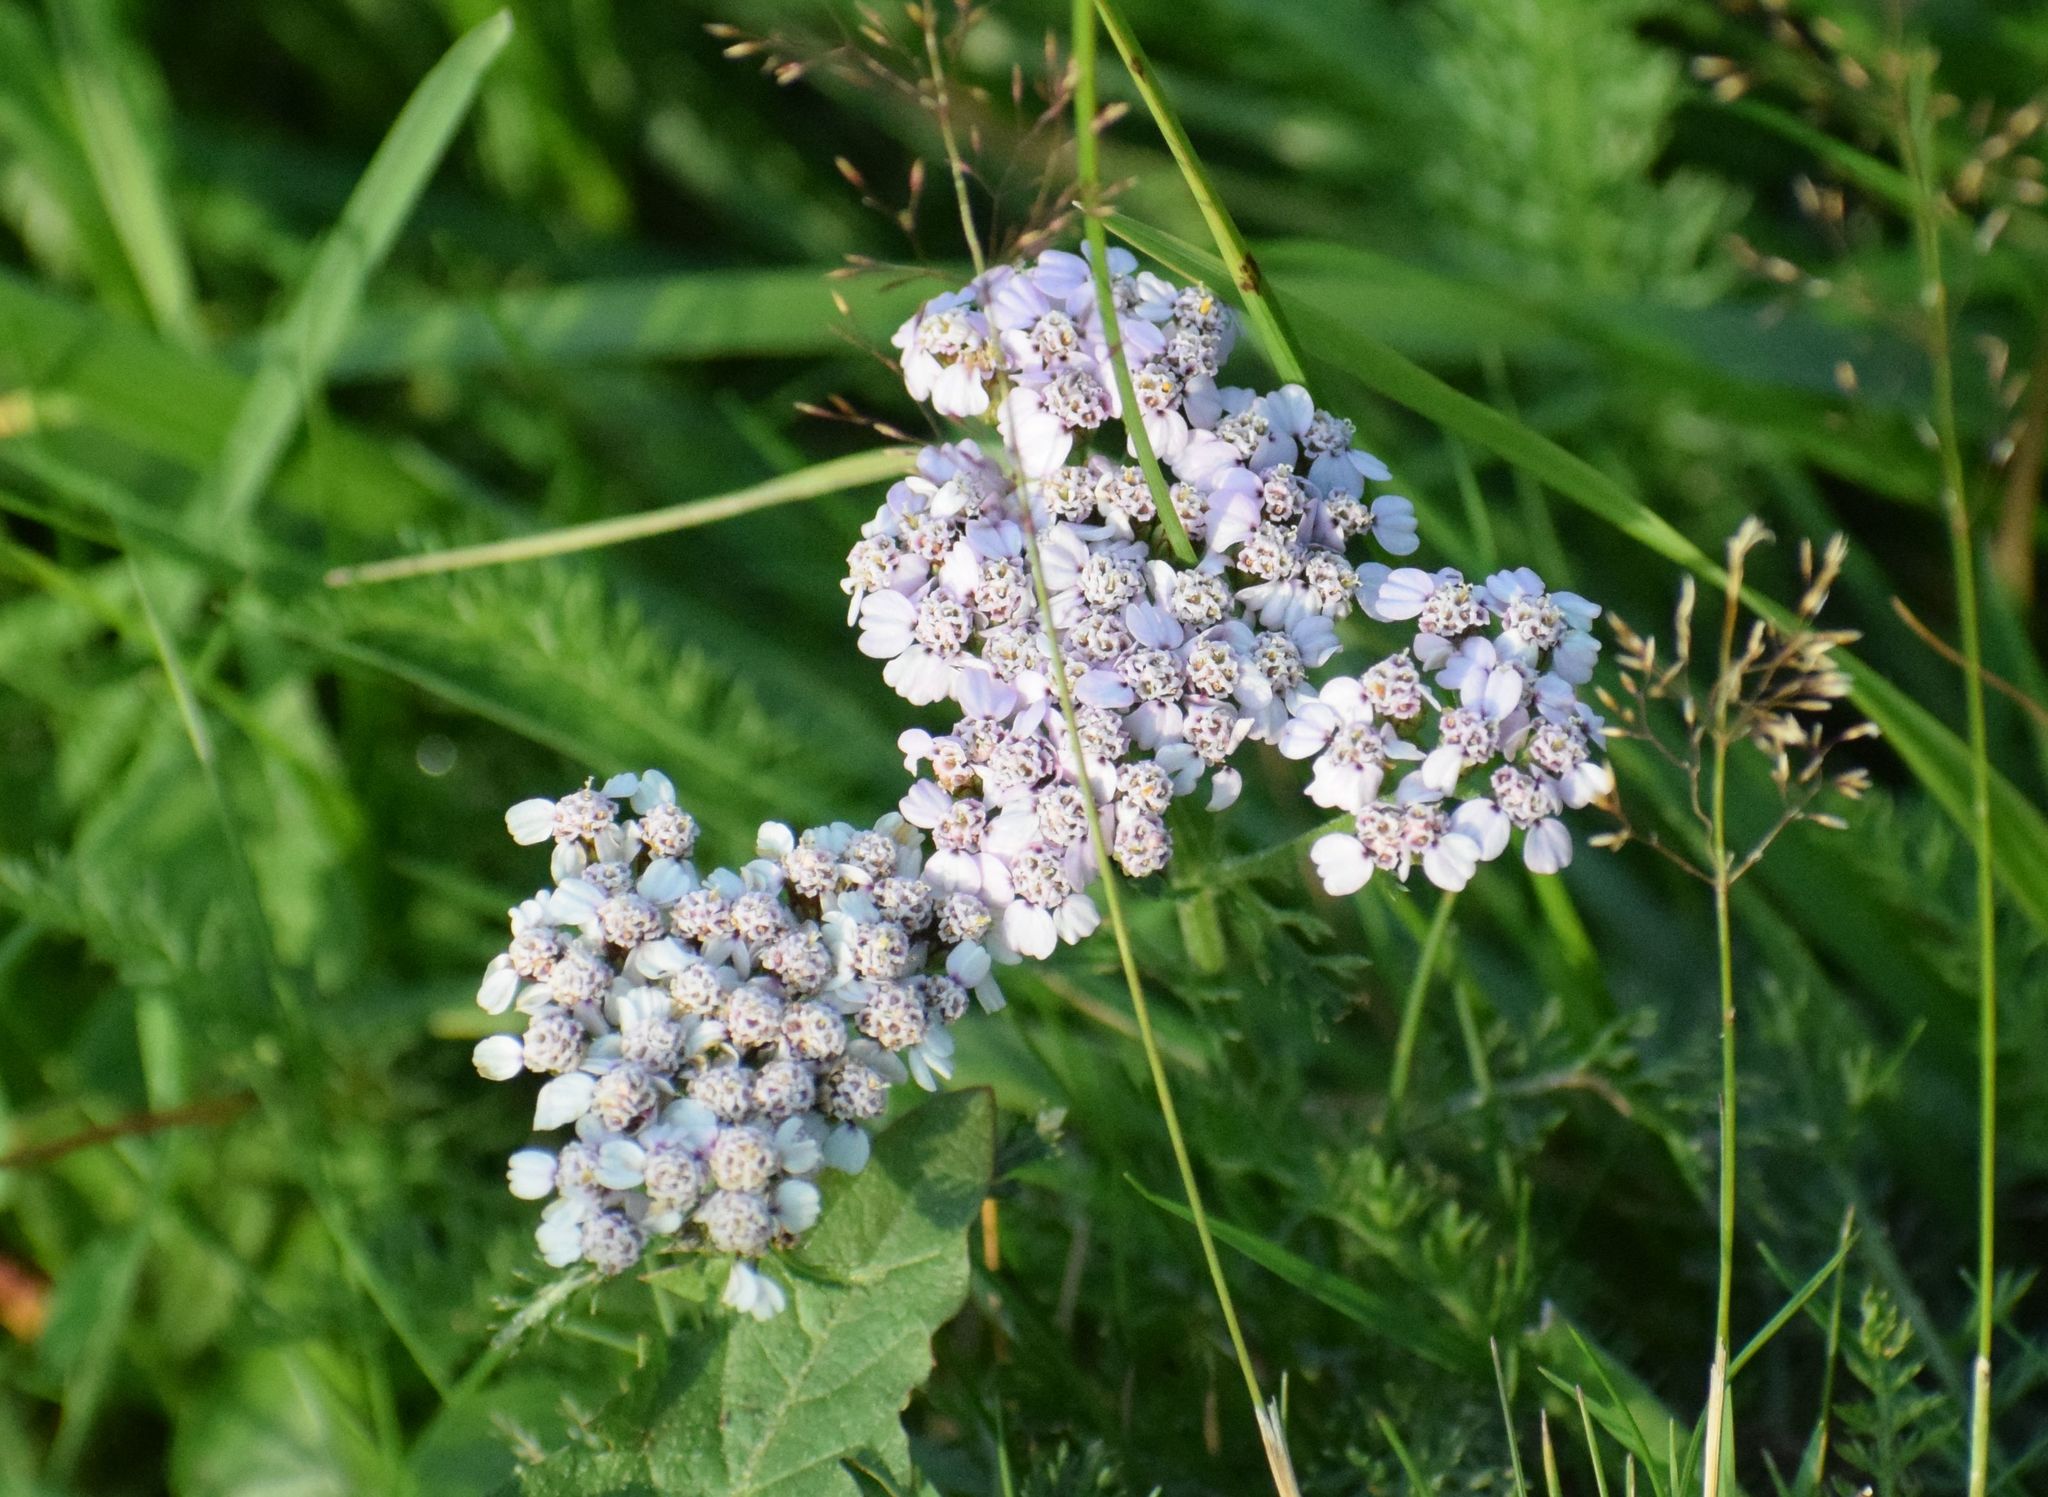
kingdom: Plantae
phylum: Tracheophyta
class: Magnoliopsida
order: Asterales
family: Asteraceae
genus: Achillea
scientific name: Achillea
